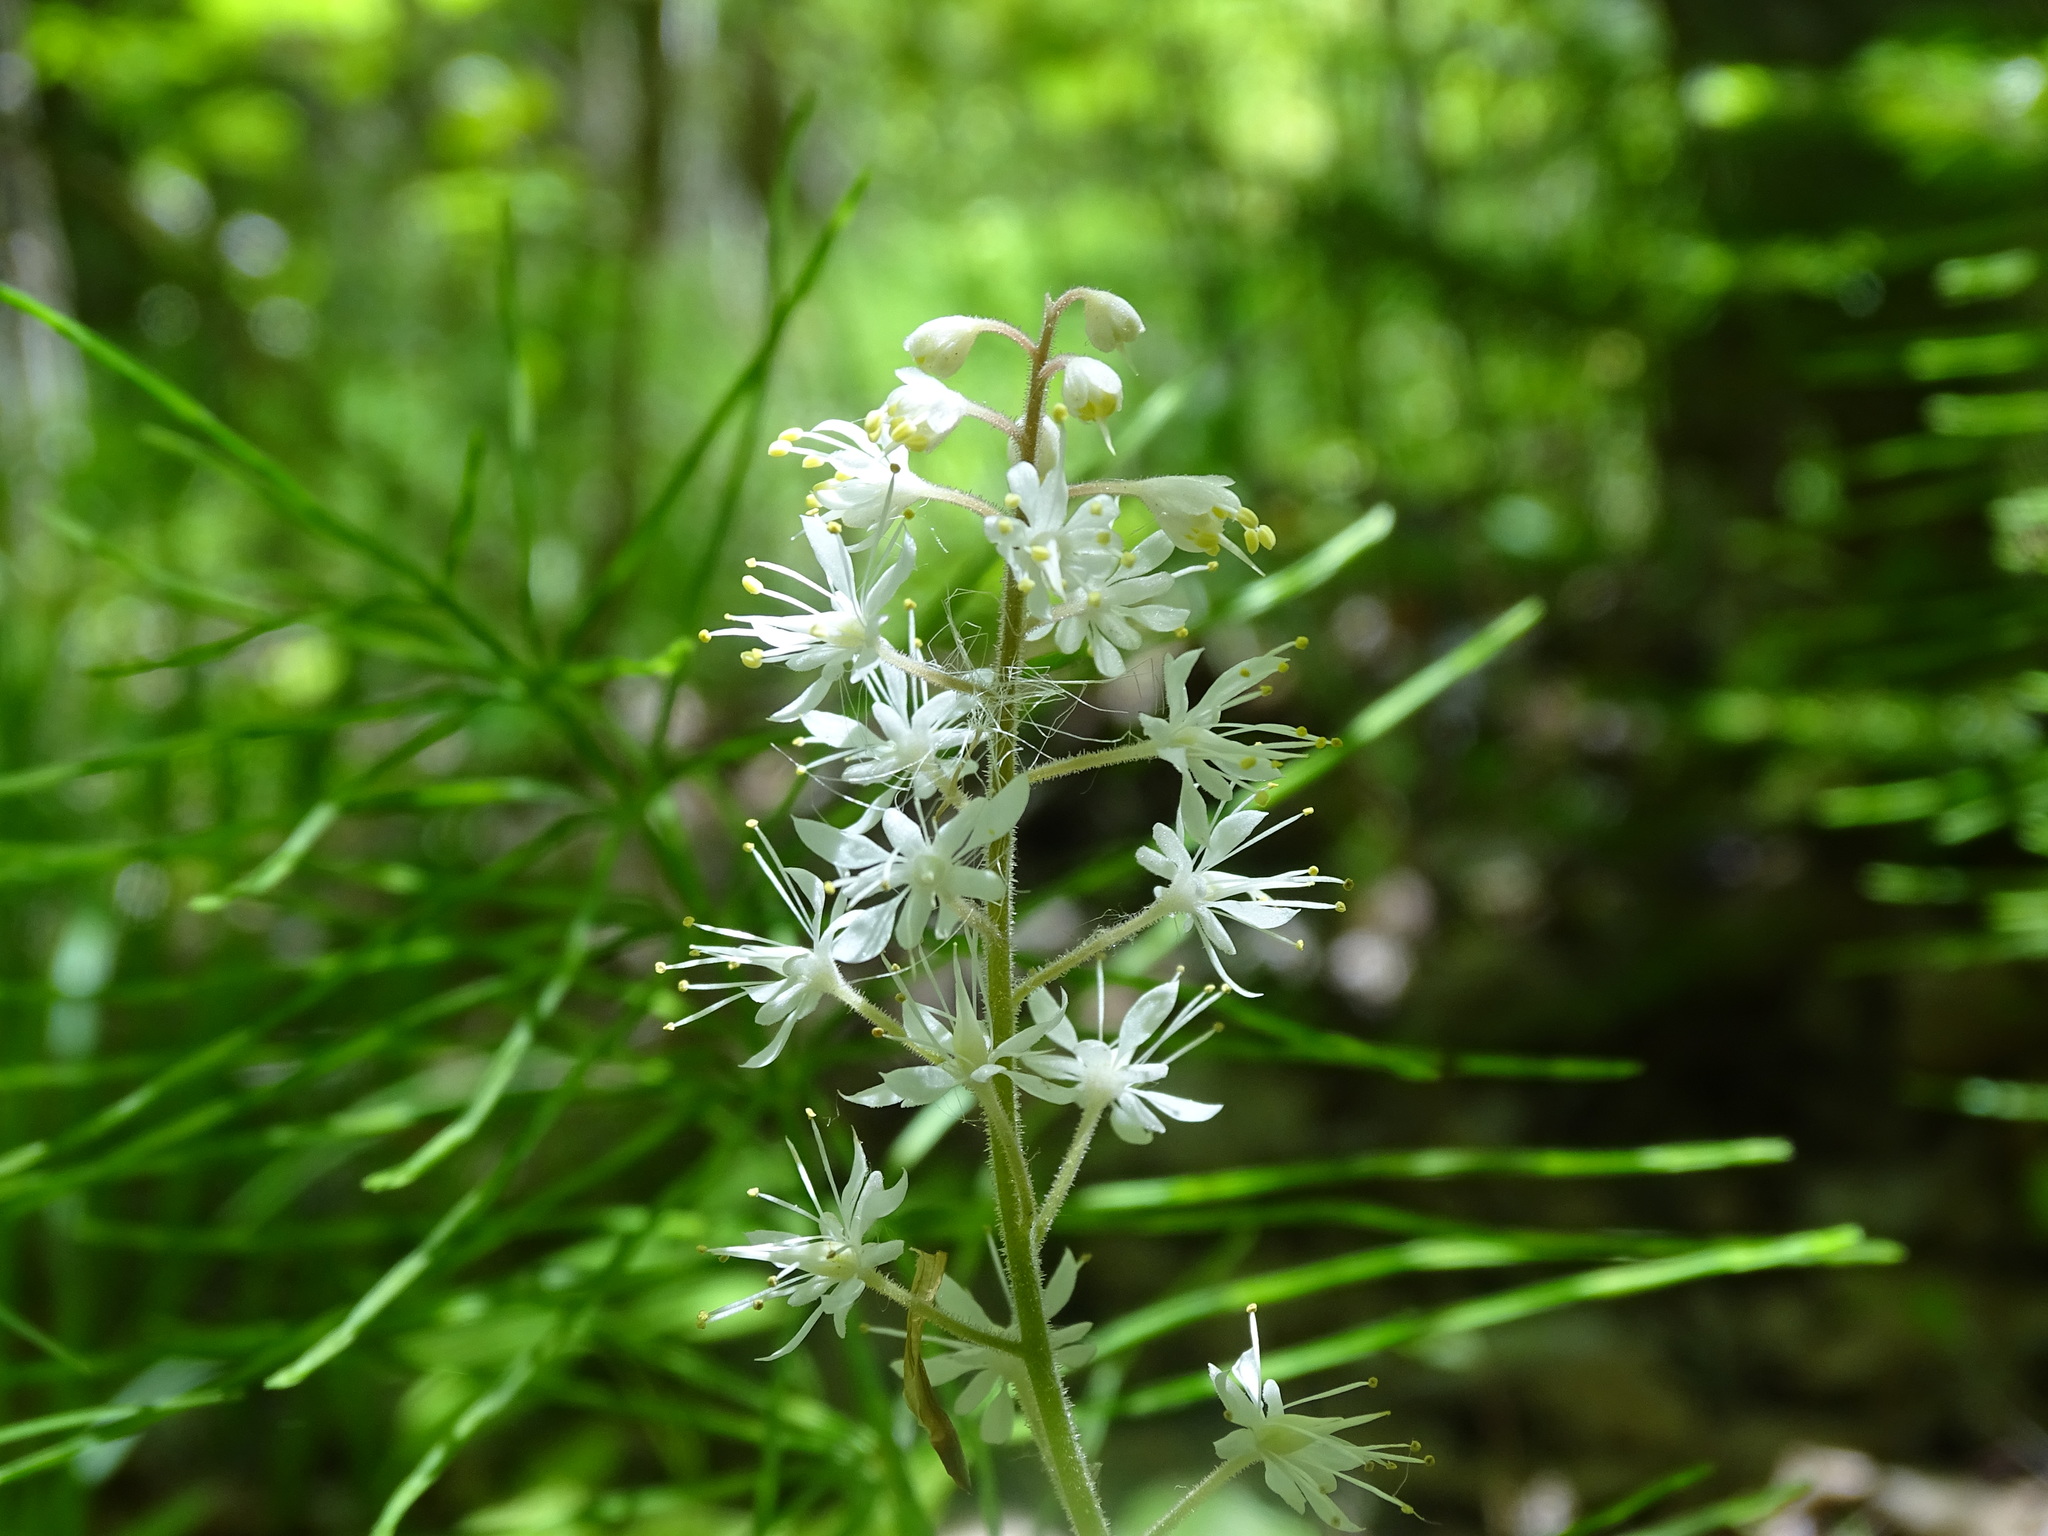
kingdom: Plantae
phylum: Tracheophyta
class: Magnoliopsida
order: Saxifragales
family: Saxifragaceae
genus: Tiarella
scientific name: Tiarella stolonifera
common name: Stoloniferous foamflower
